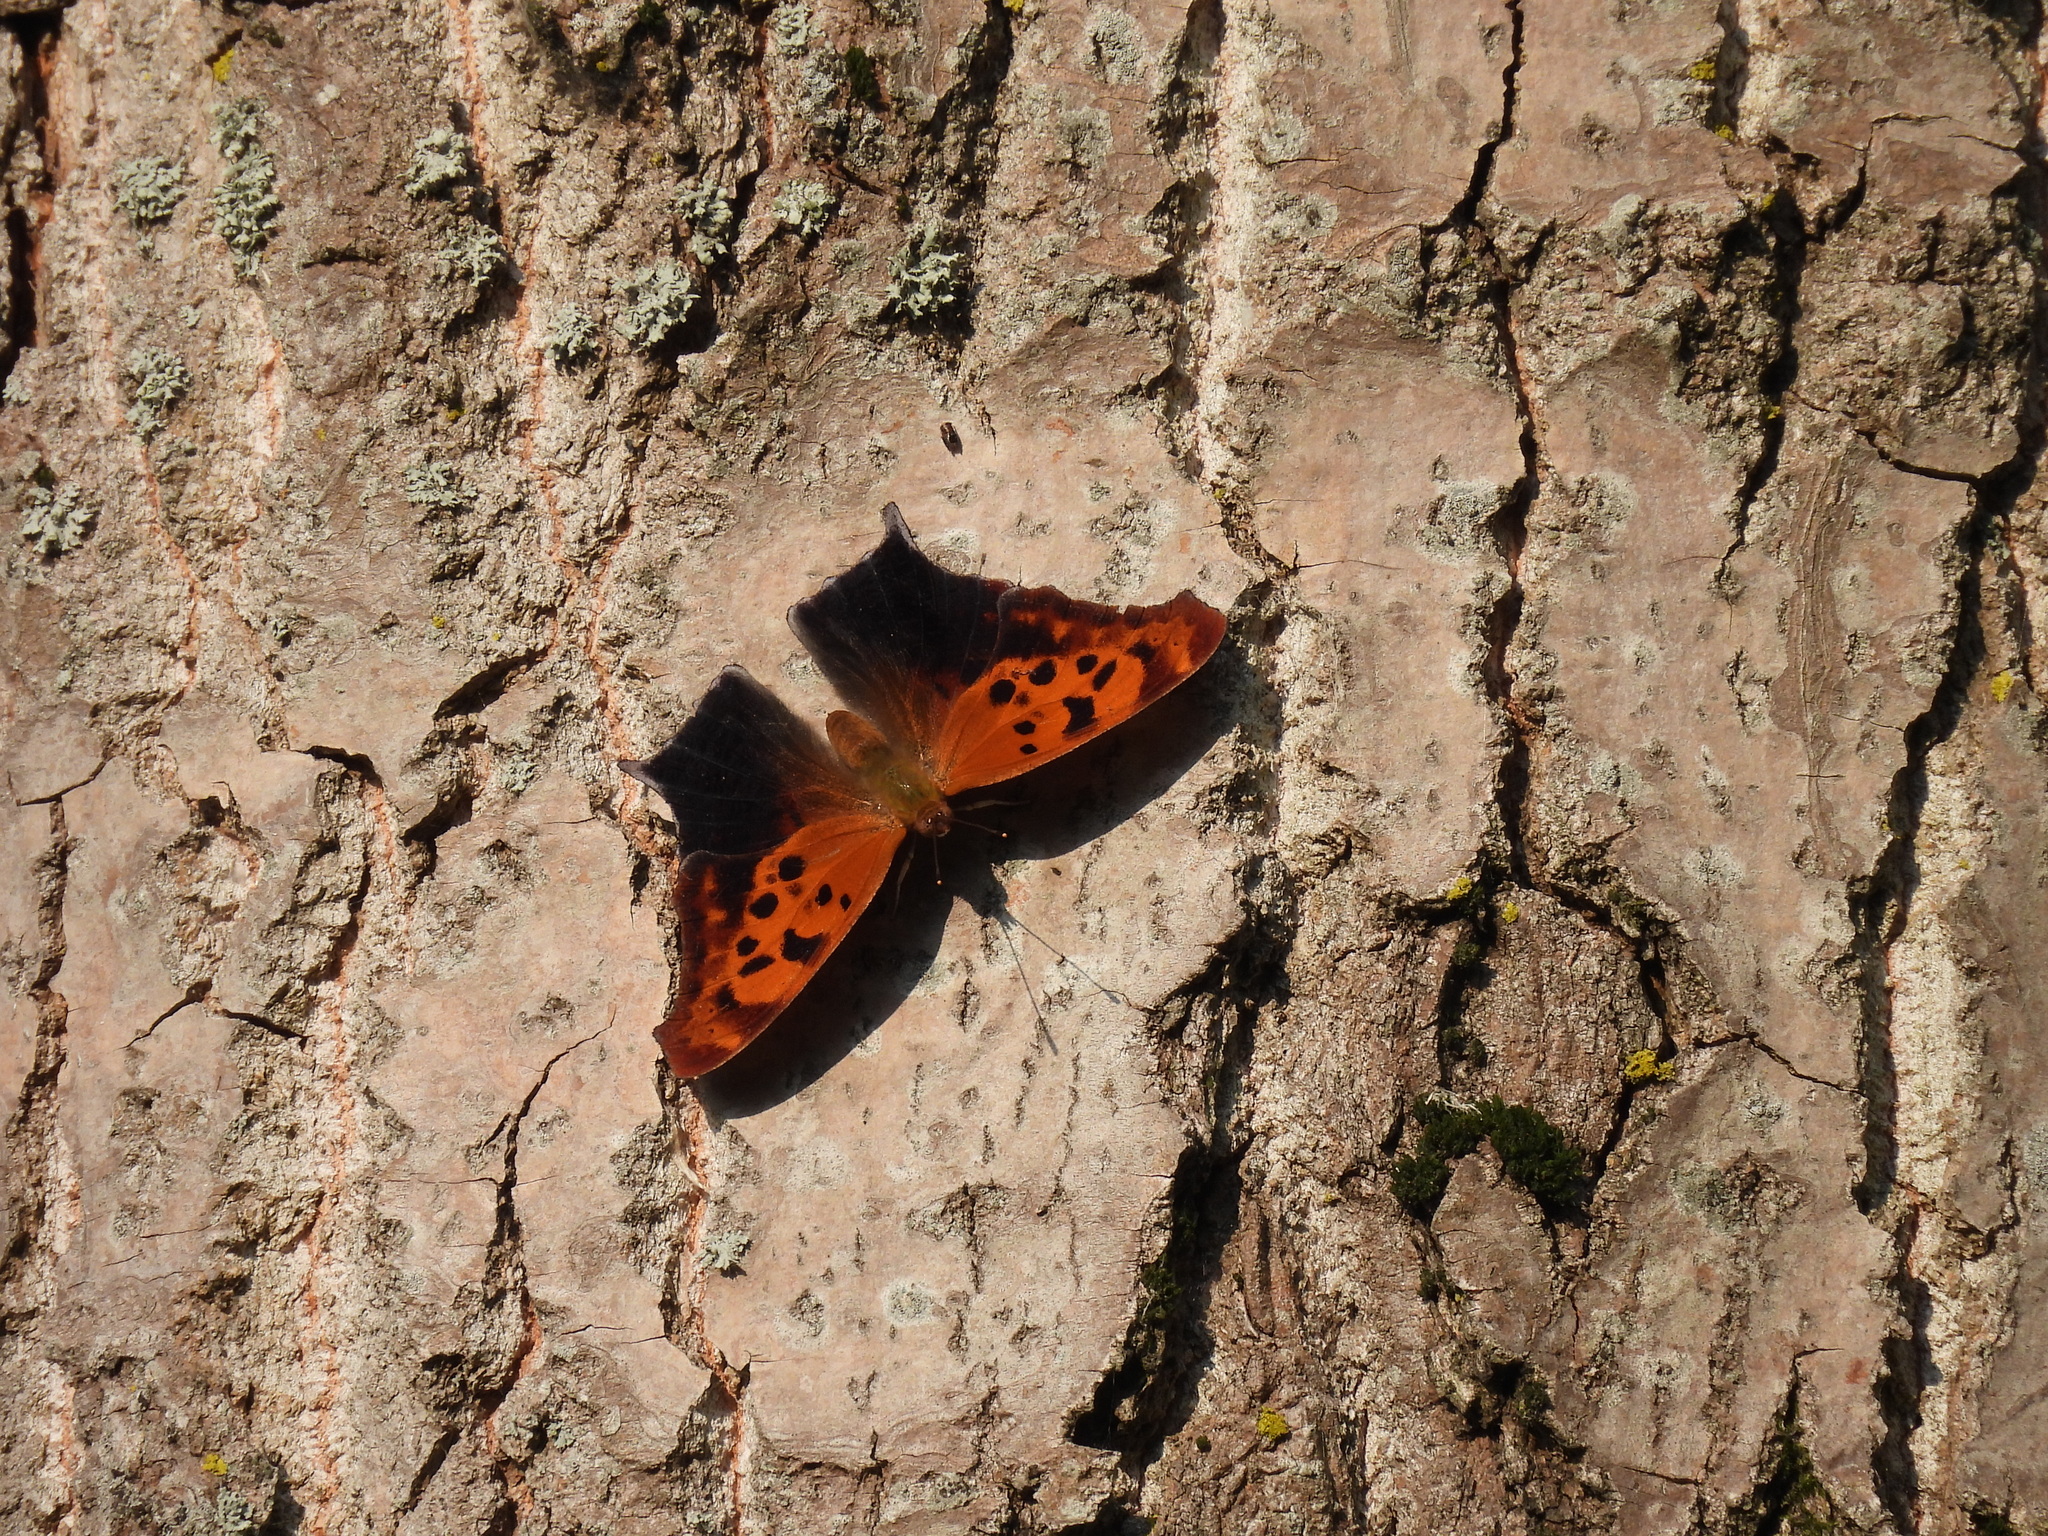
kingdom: Animalia
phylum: Arthropoda
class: Insecta
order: Lepidoptera
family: Nymphalidae
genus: Polygonia
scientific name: Polygonia interrogationis
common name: Question mark
